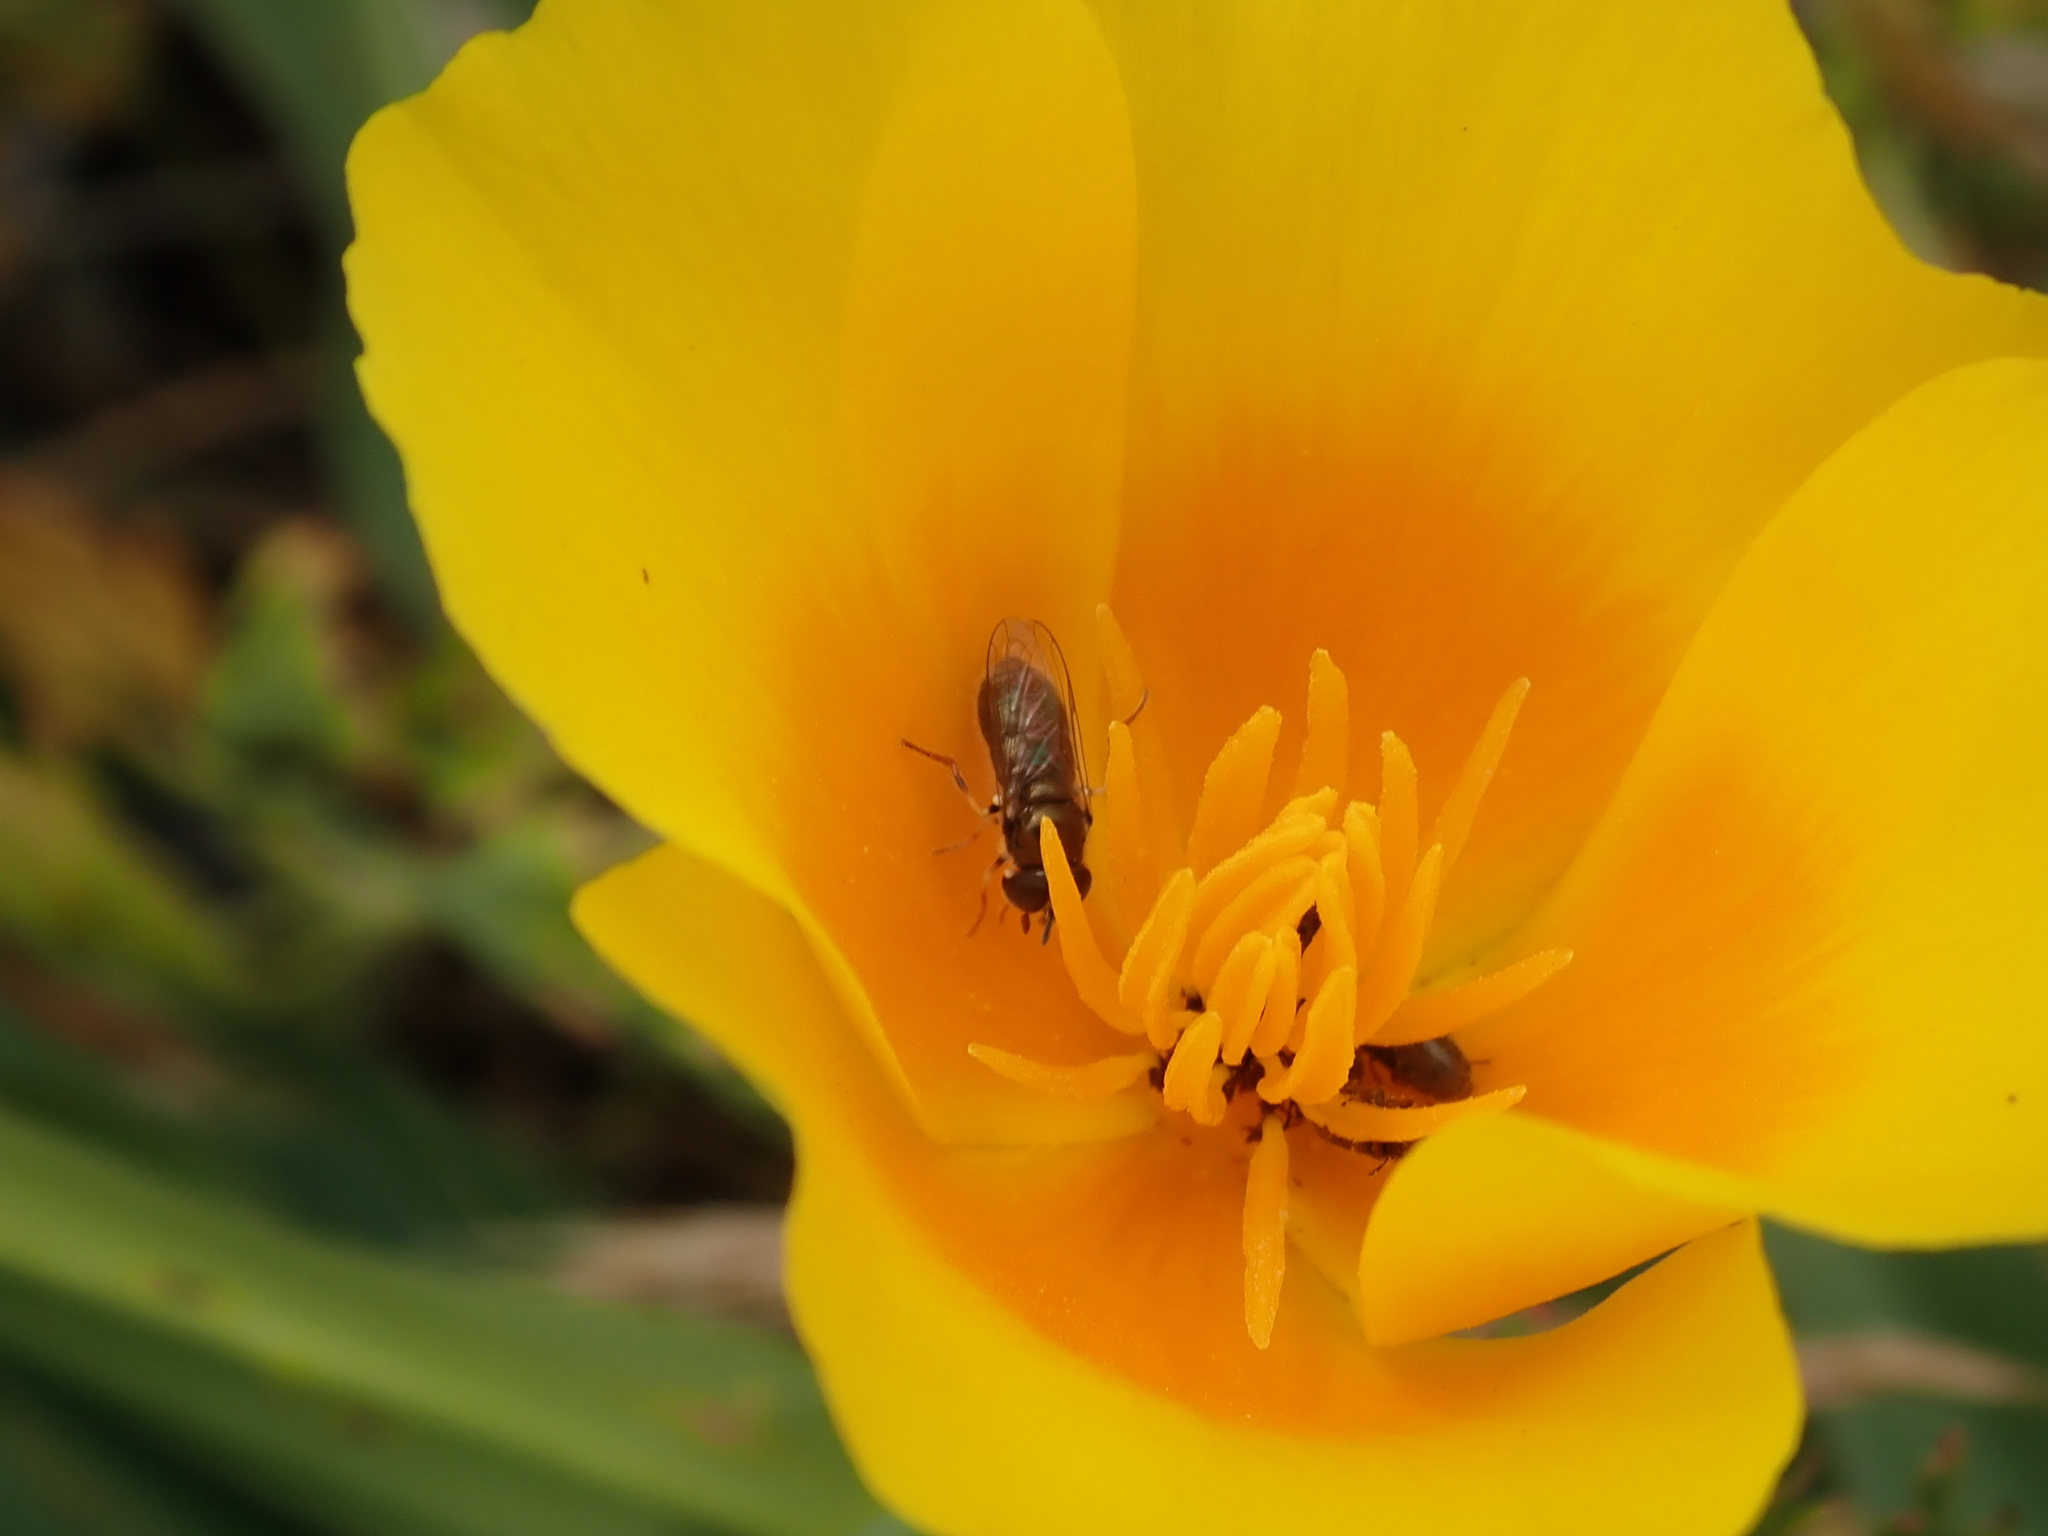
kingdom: Plantae
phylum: Tracheophyta
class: Magnoliopsida
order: Ranunculales
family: Papaveraceae
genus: Eschscholzia
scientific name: Eschscholzia californica
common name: California poppy
